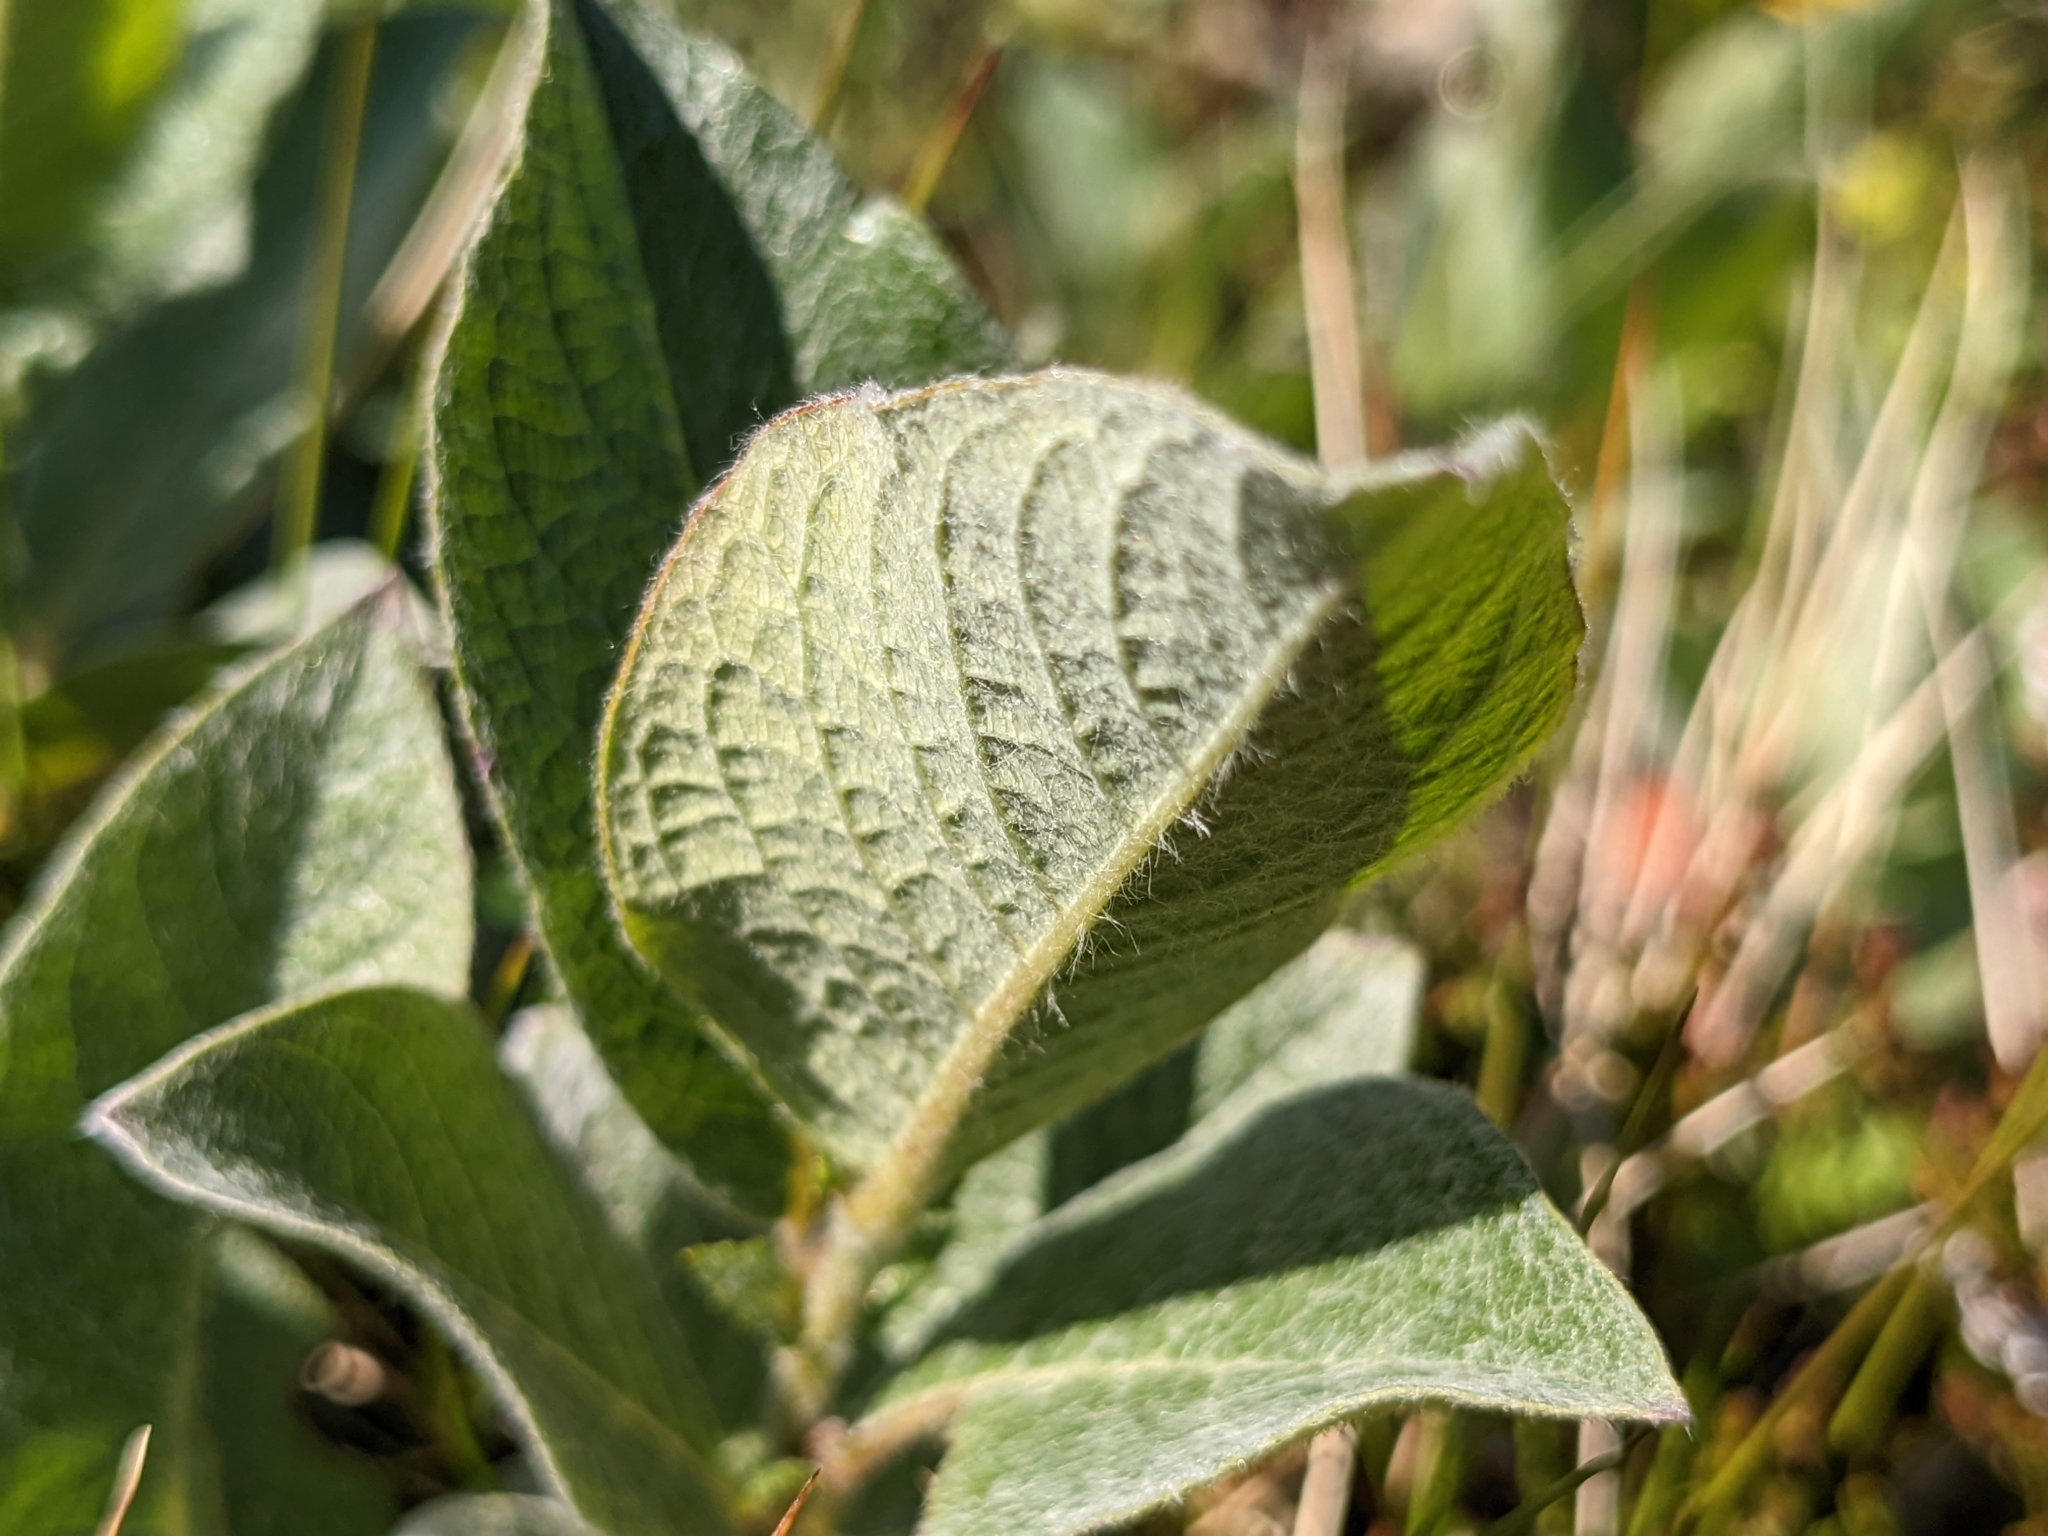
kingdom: Plantae
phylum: Tracheophyta
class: Magnoliopsida
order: Malpighiales
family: Salicaceae
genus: Salix
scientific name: Salix lanata
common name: Woolly willow
